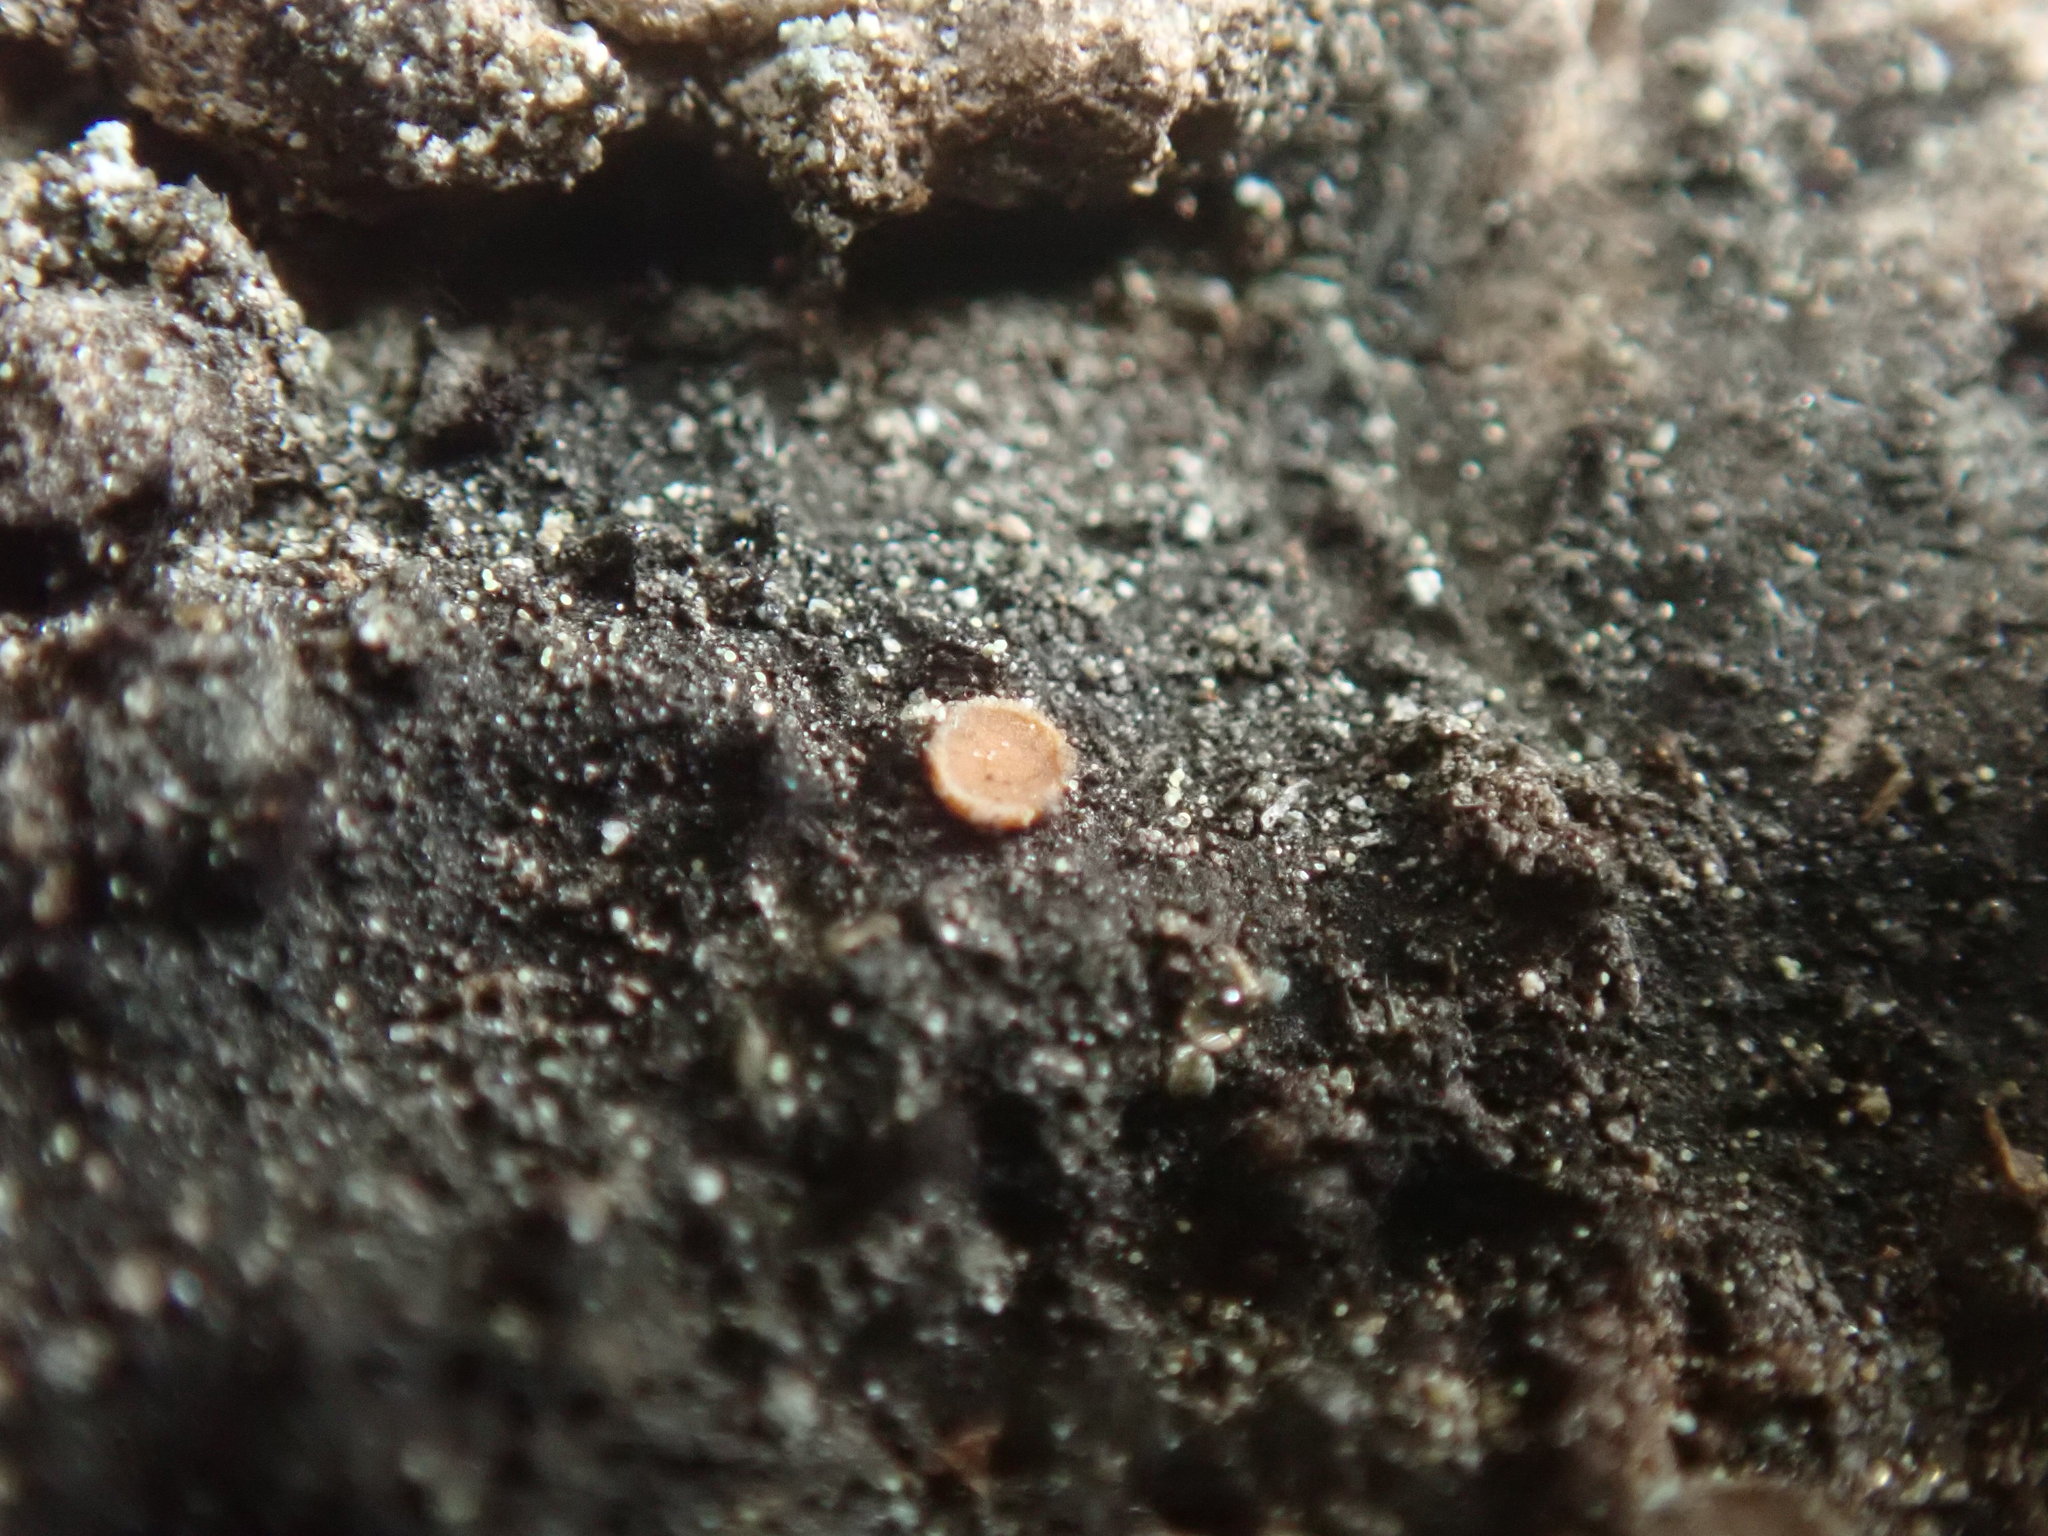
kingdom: Fungi
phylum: Ascomycota
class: Sareomycetes
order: Sareales
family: Sareaceae
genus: Sarea
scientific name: Sarea resinae
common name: Sarea lichen
